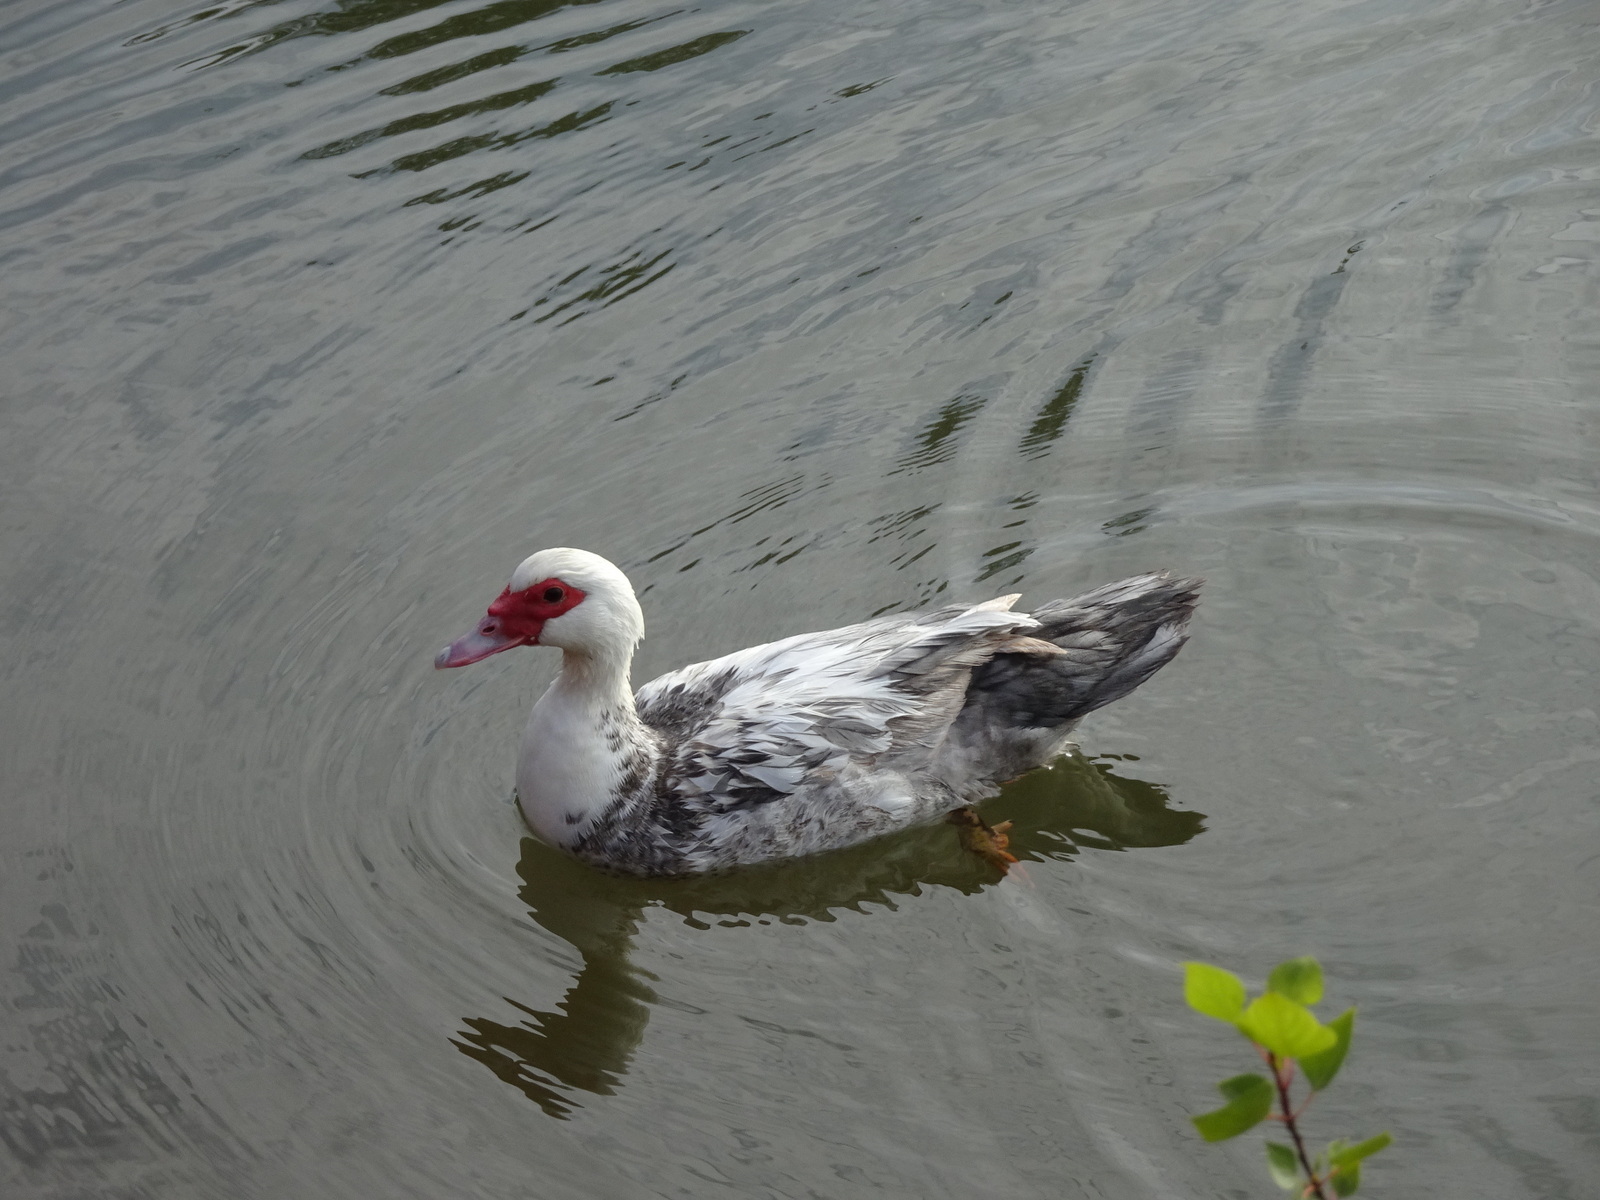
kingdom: Animalia
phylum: Chordata
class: Aves
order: Anseriformes
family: Anatidae
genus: Cairina
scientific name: Cairina moschata
